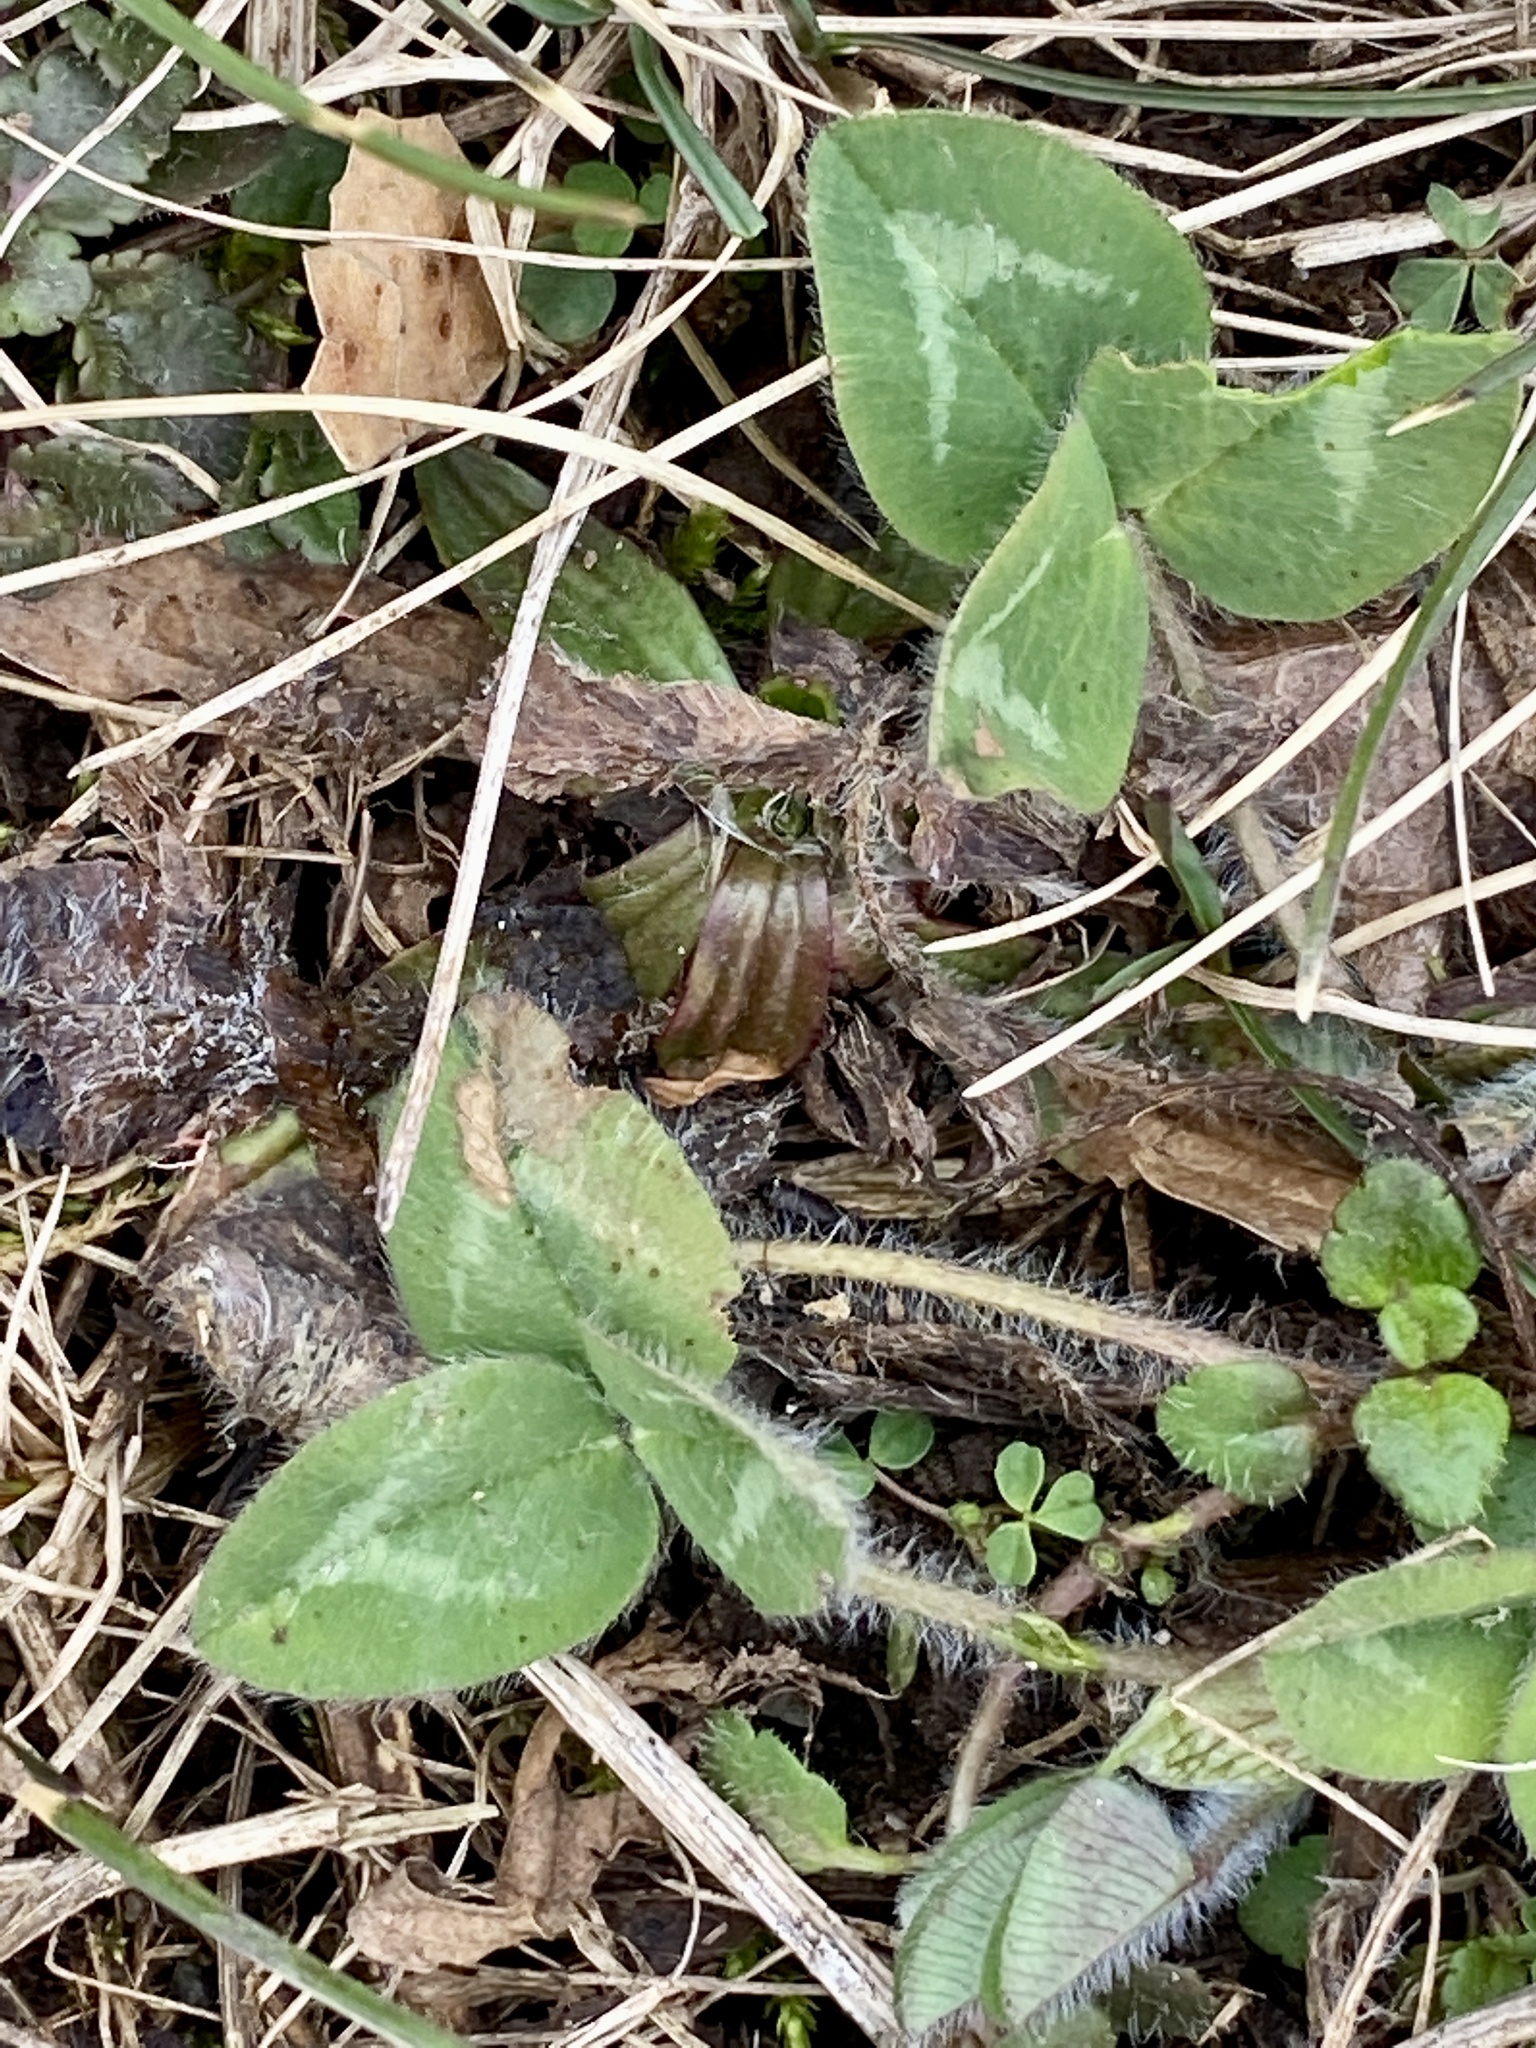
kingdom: Plantae
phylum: Tracheophyta
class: Magnoliopsida
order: Fabales
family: Fabaceae
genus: Trifolium
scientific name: Trifolium pratense
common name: Red clover
